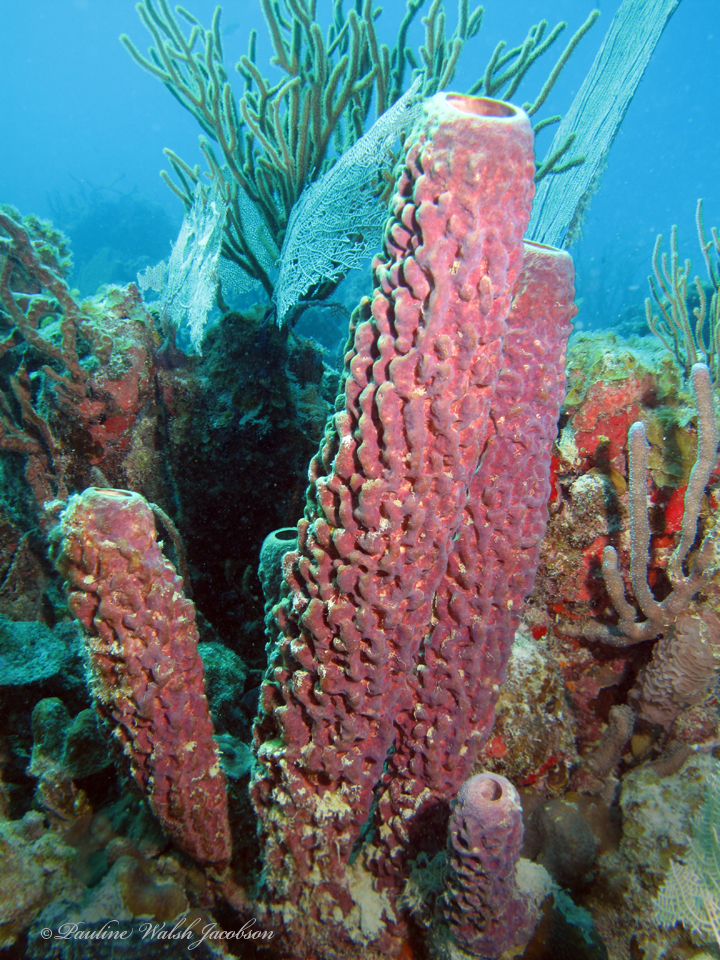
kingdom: Animalia
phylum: Porifera
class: Demospongiae
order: Verongiida
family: Aplysinidae
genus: Aplysina
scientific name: Aplysina archeri
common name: Stove-pipe sponge
